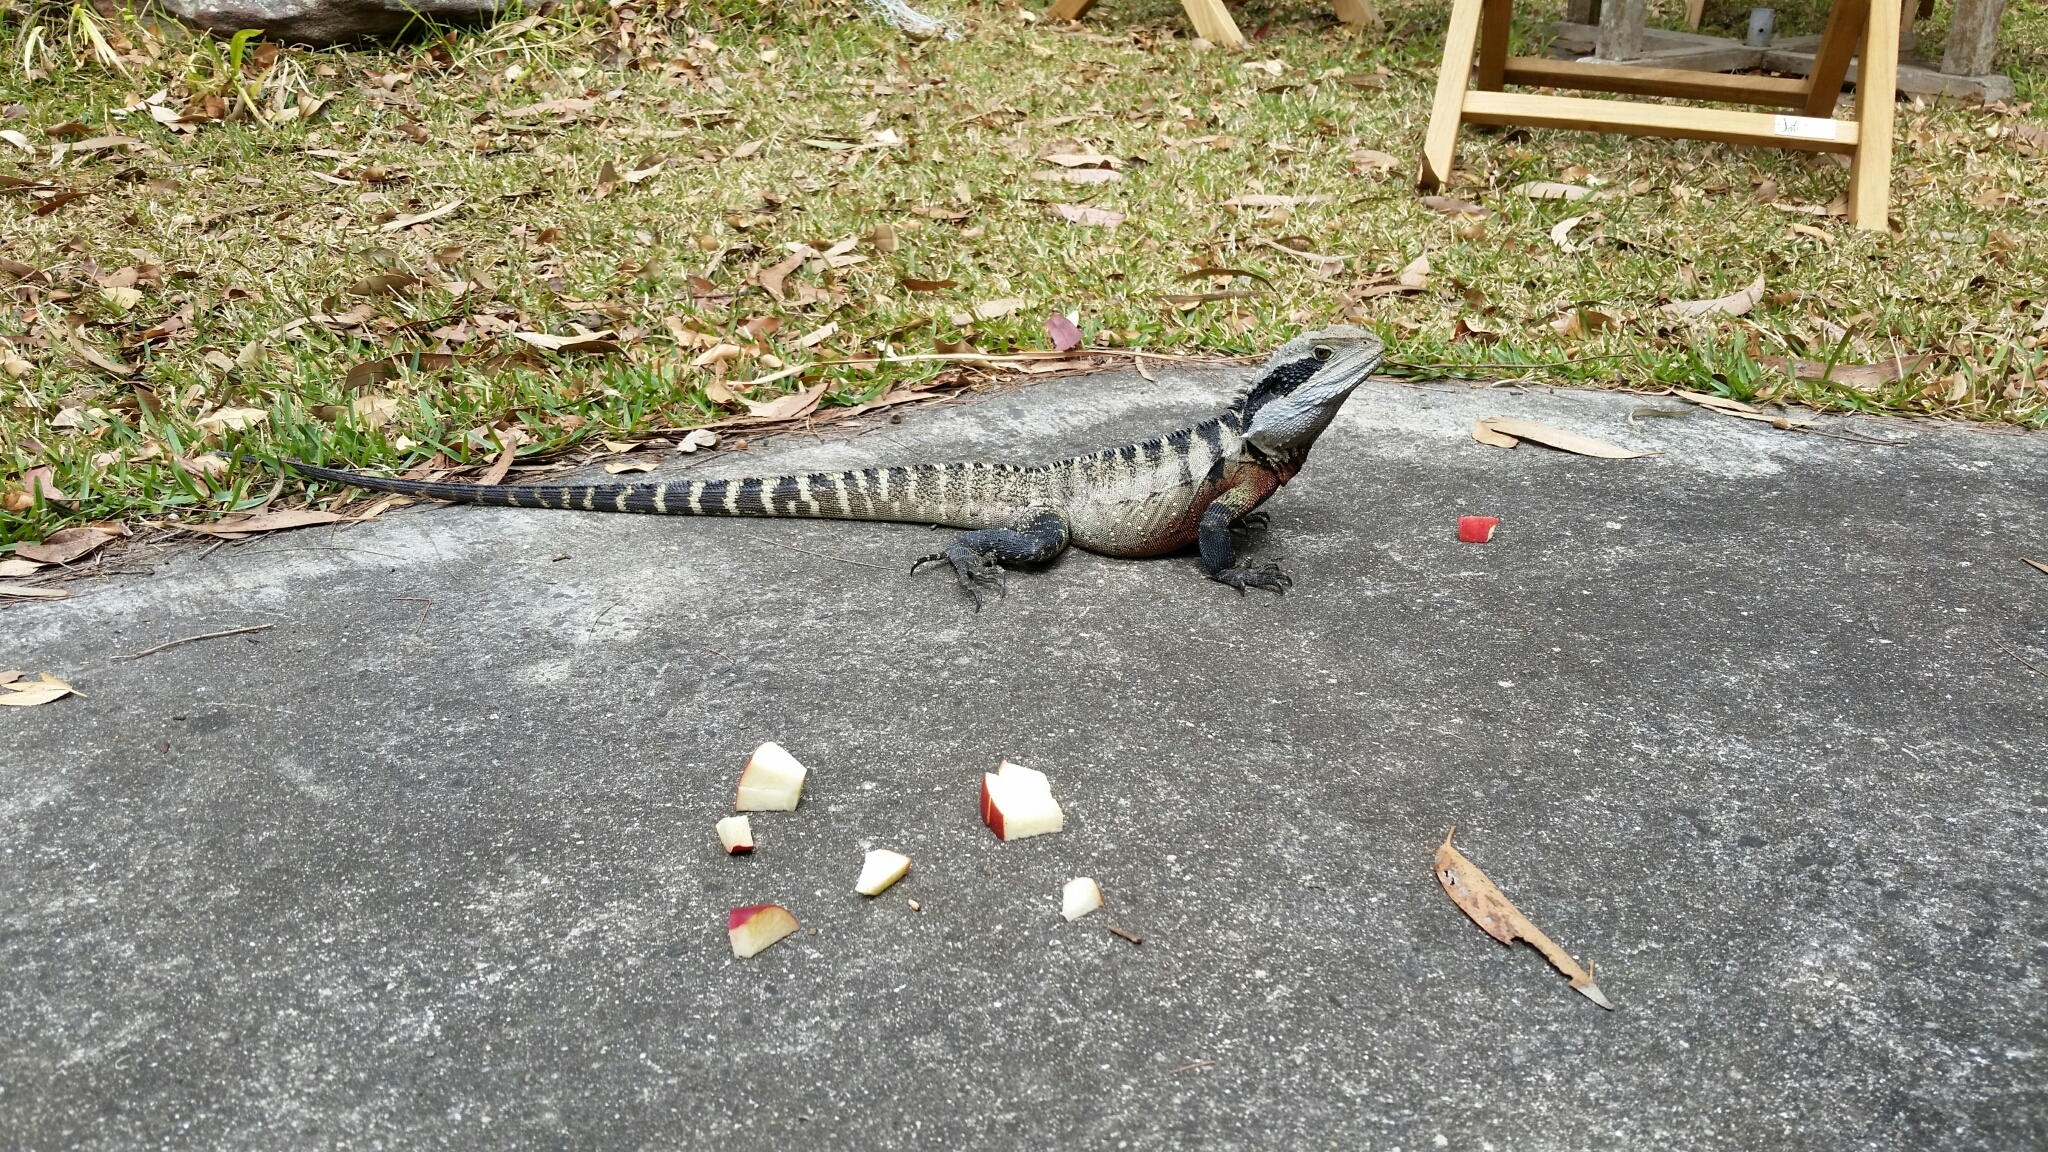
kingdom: Animalia
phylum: Chordata
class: Squamata
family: Agamidae
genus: Intellagama
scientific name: Intellagama lesueurii
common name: Eastern water dragon
